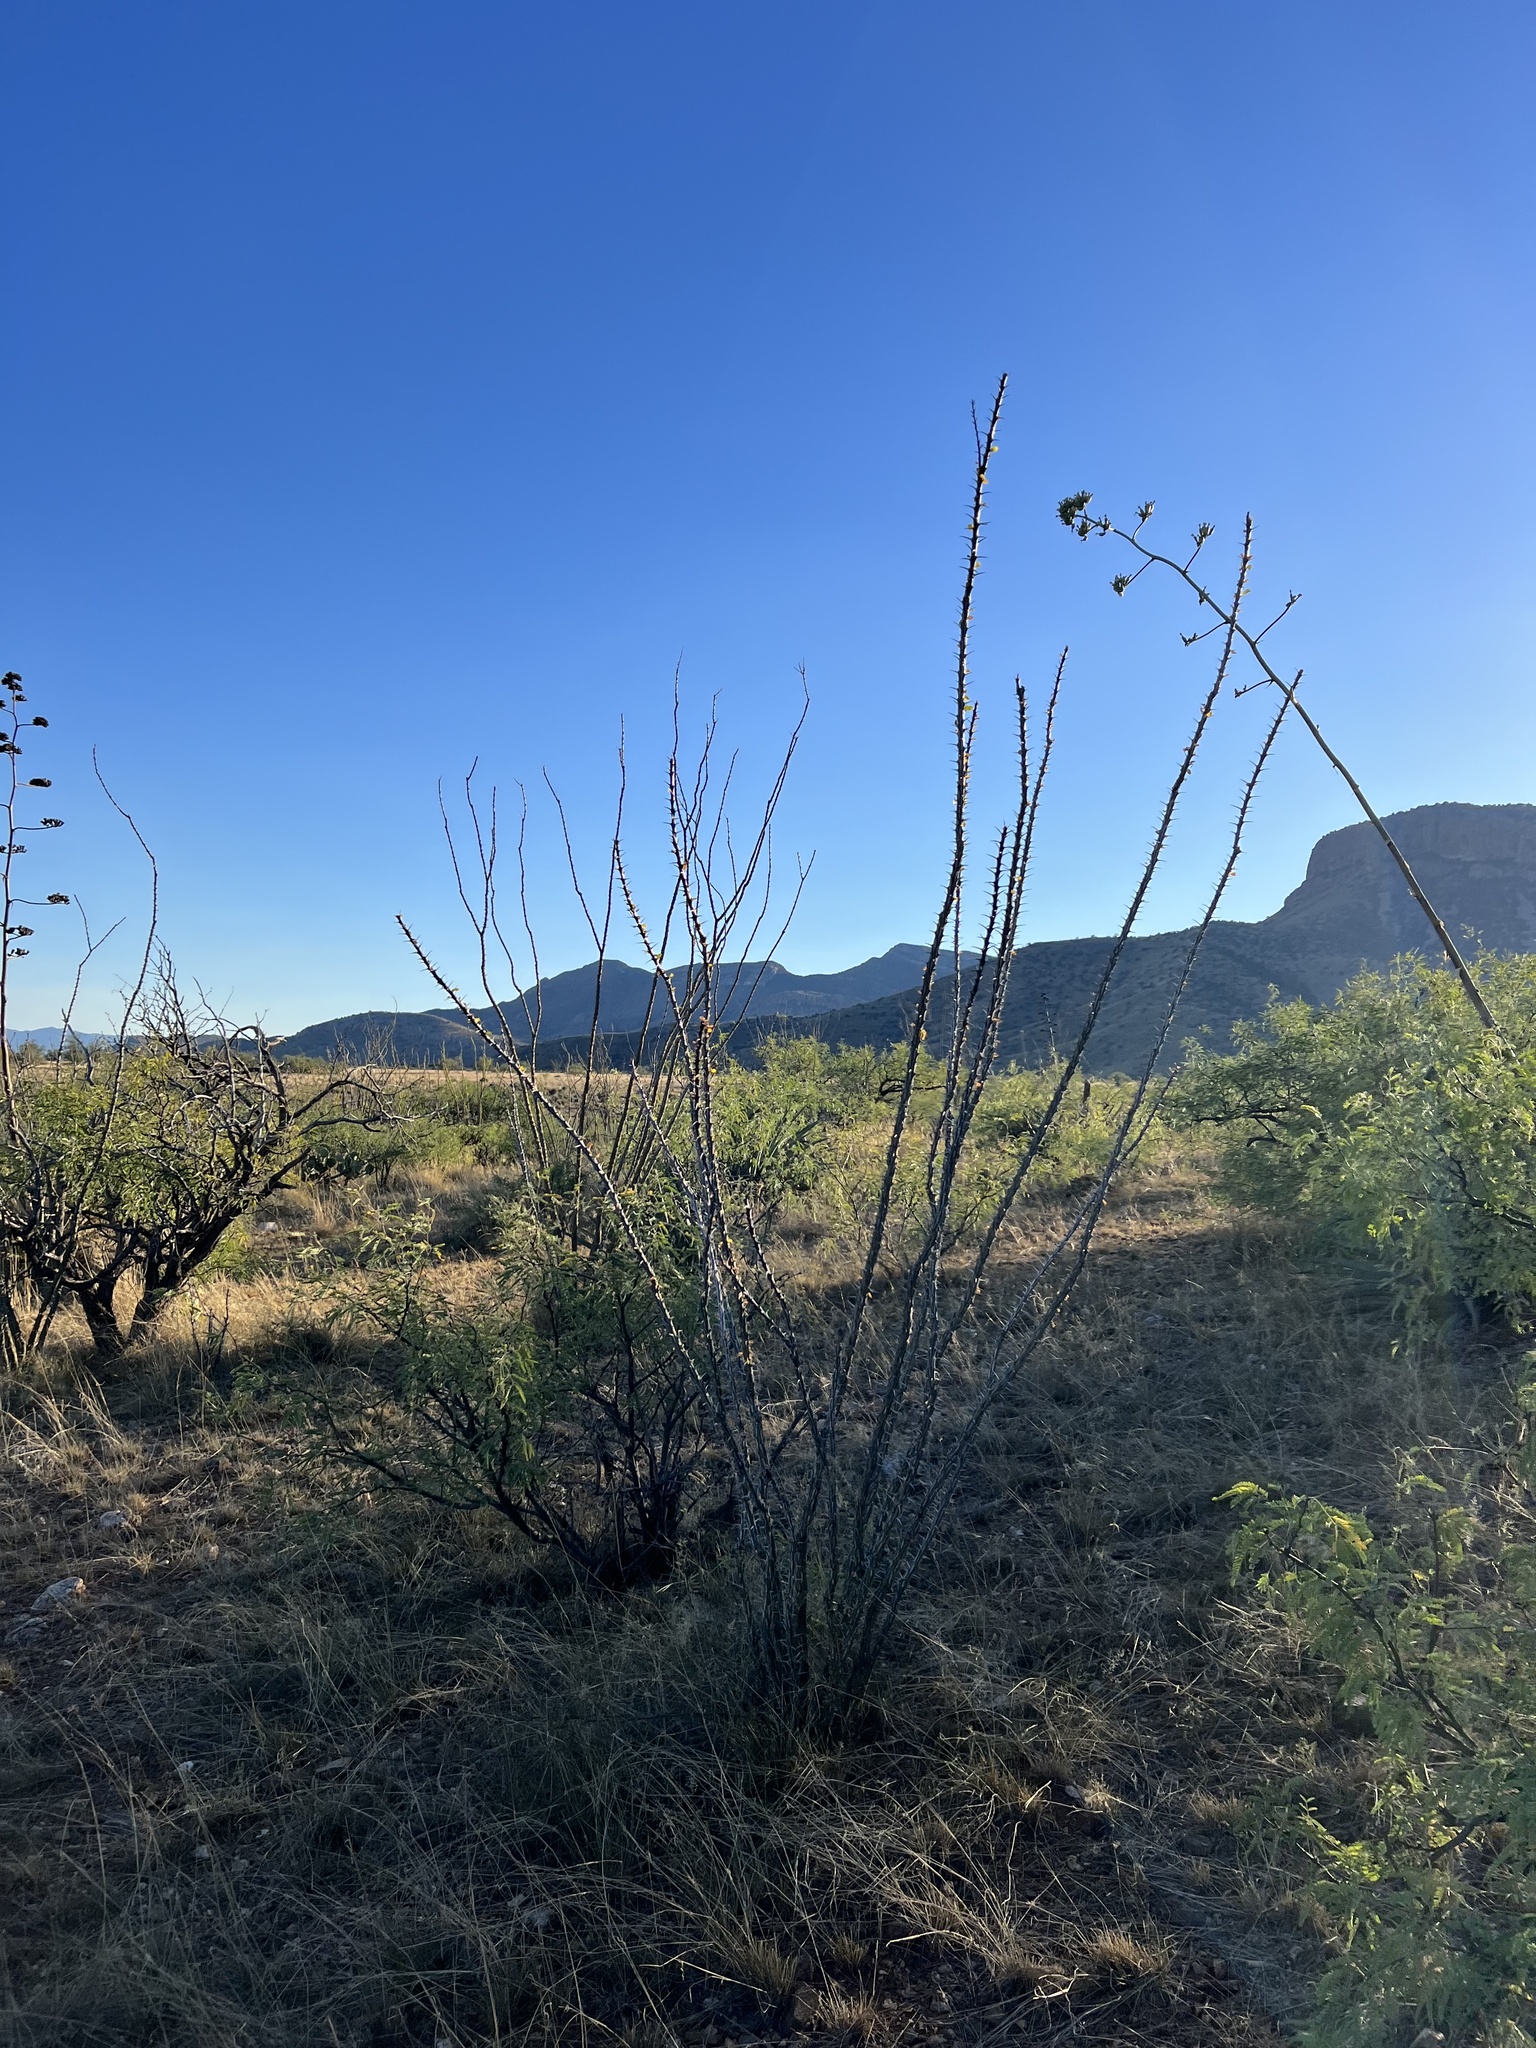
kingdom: Plantae
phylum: Tracheophyta
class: Magnoliopsida
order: Ericales
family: Fouquieriaceae
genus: Fouquieria
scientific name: Fouquieria splendens
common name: Vine-cactus
